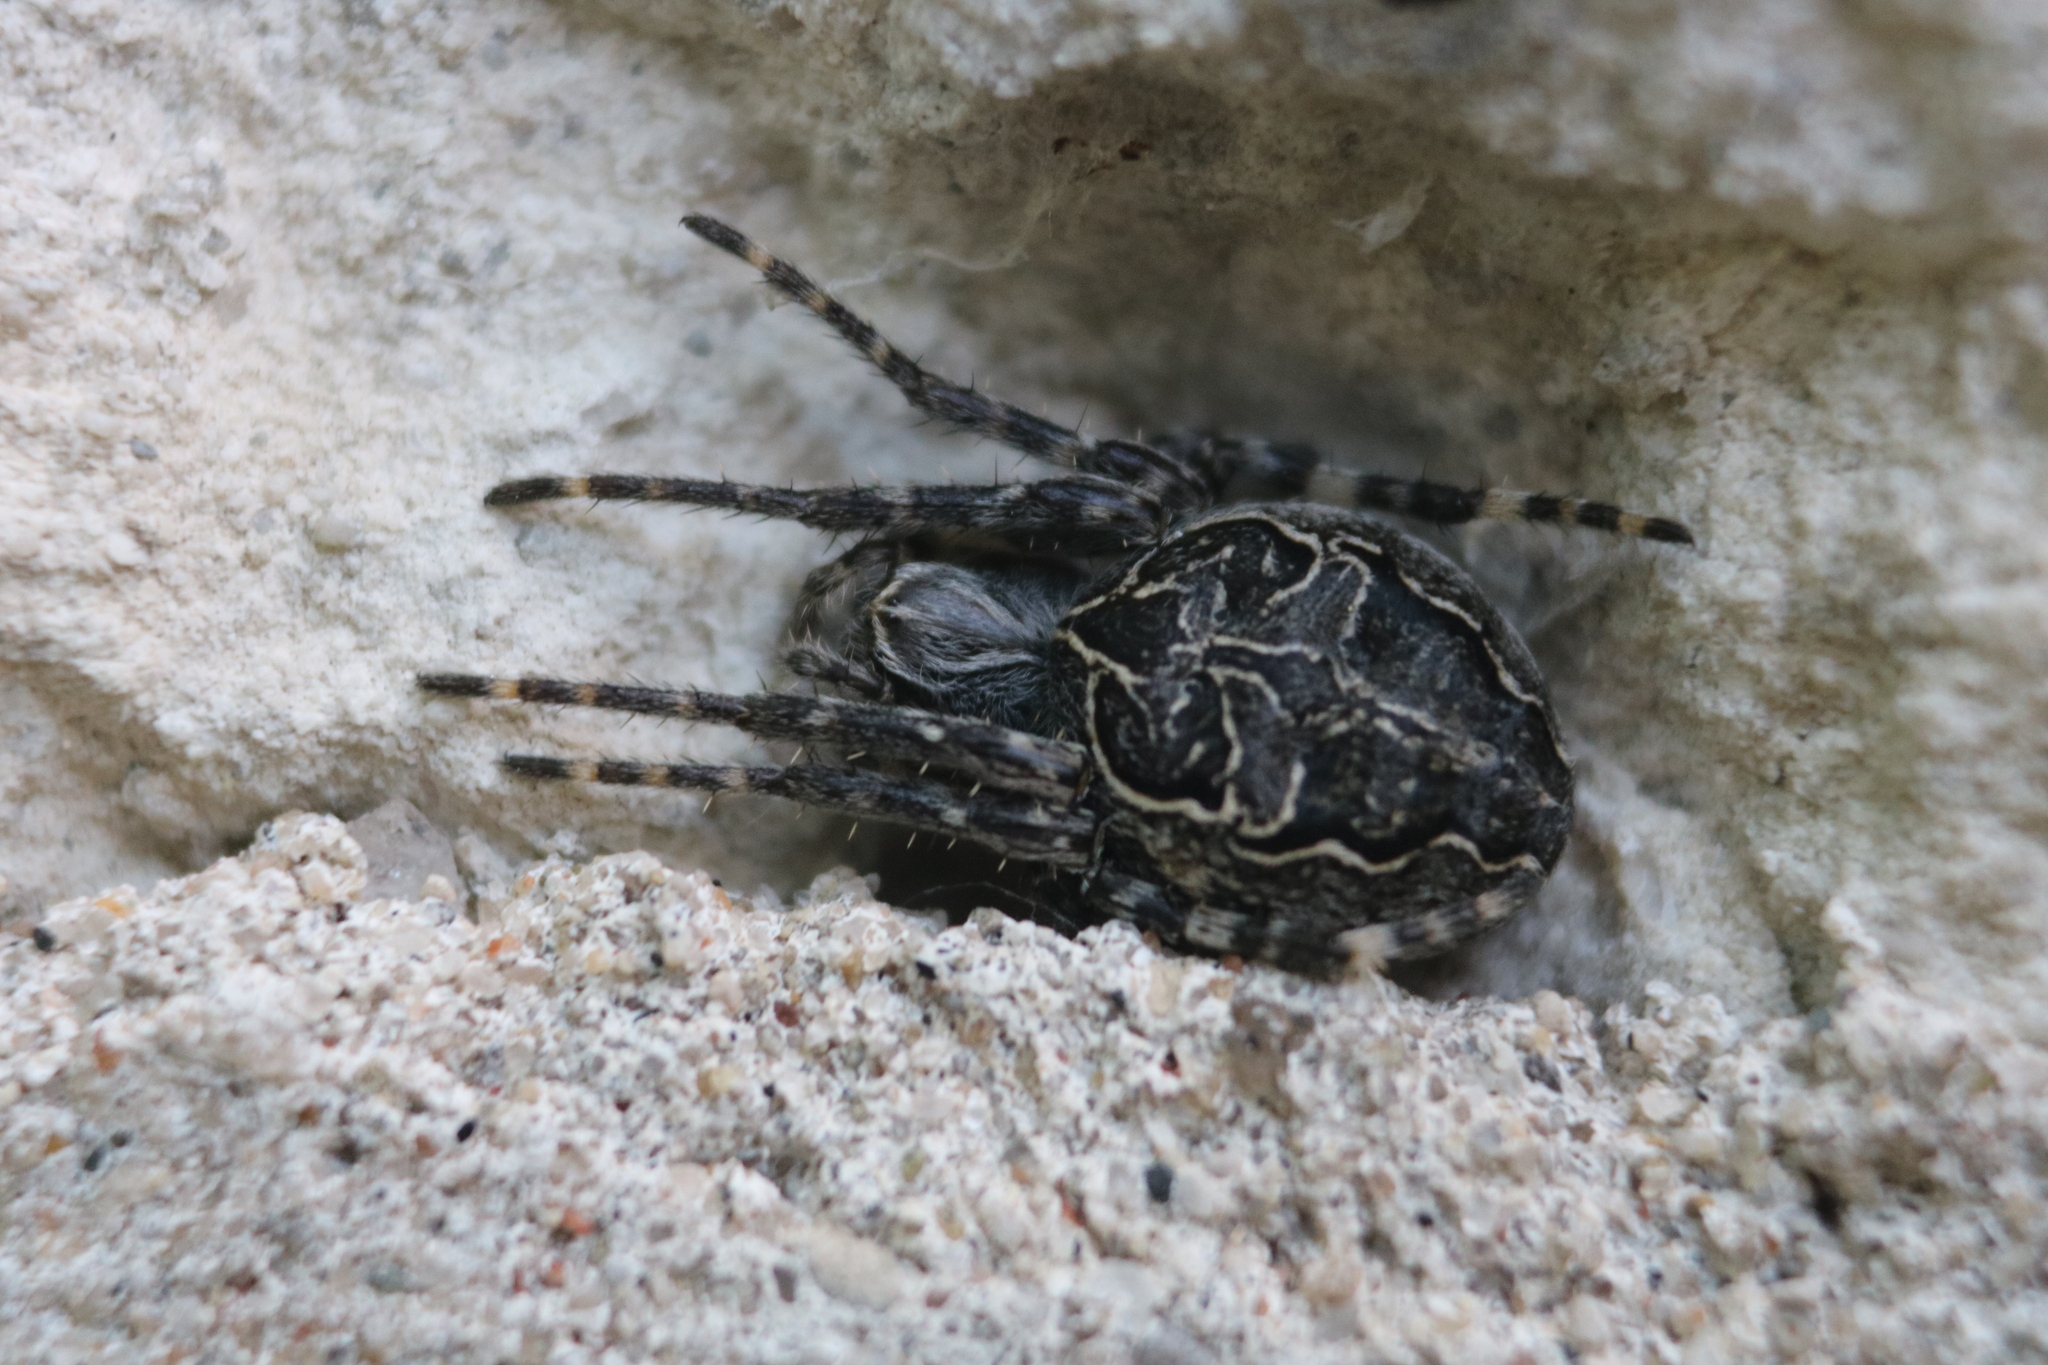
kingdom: Animalia
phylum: Arthropoda
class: Arachnida
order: Araneae
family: Araneidae
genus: Larinioides
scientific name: Larinioides sclopetarius
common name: Bridge orbweaver
